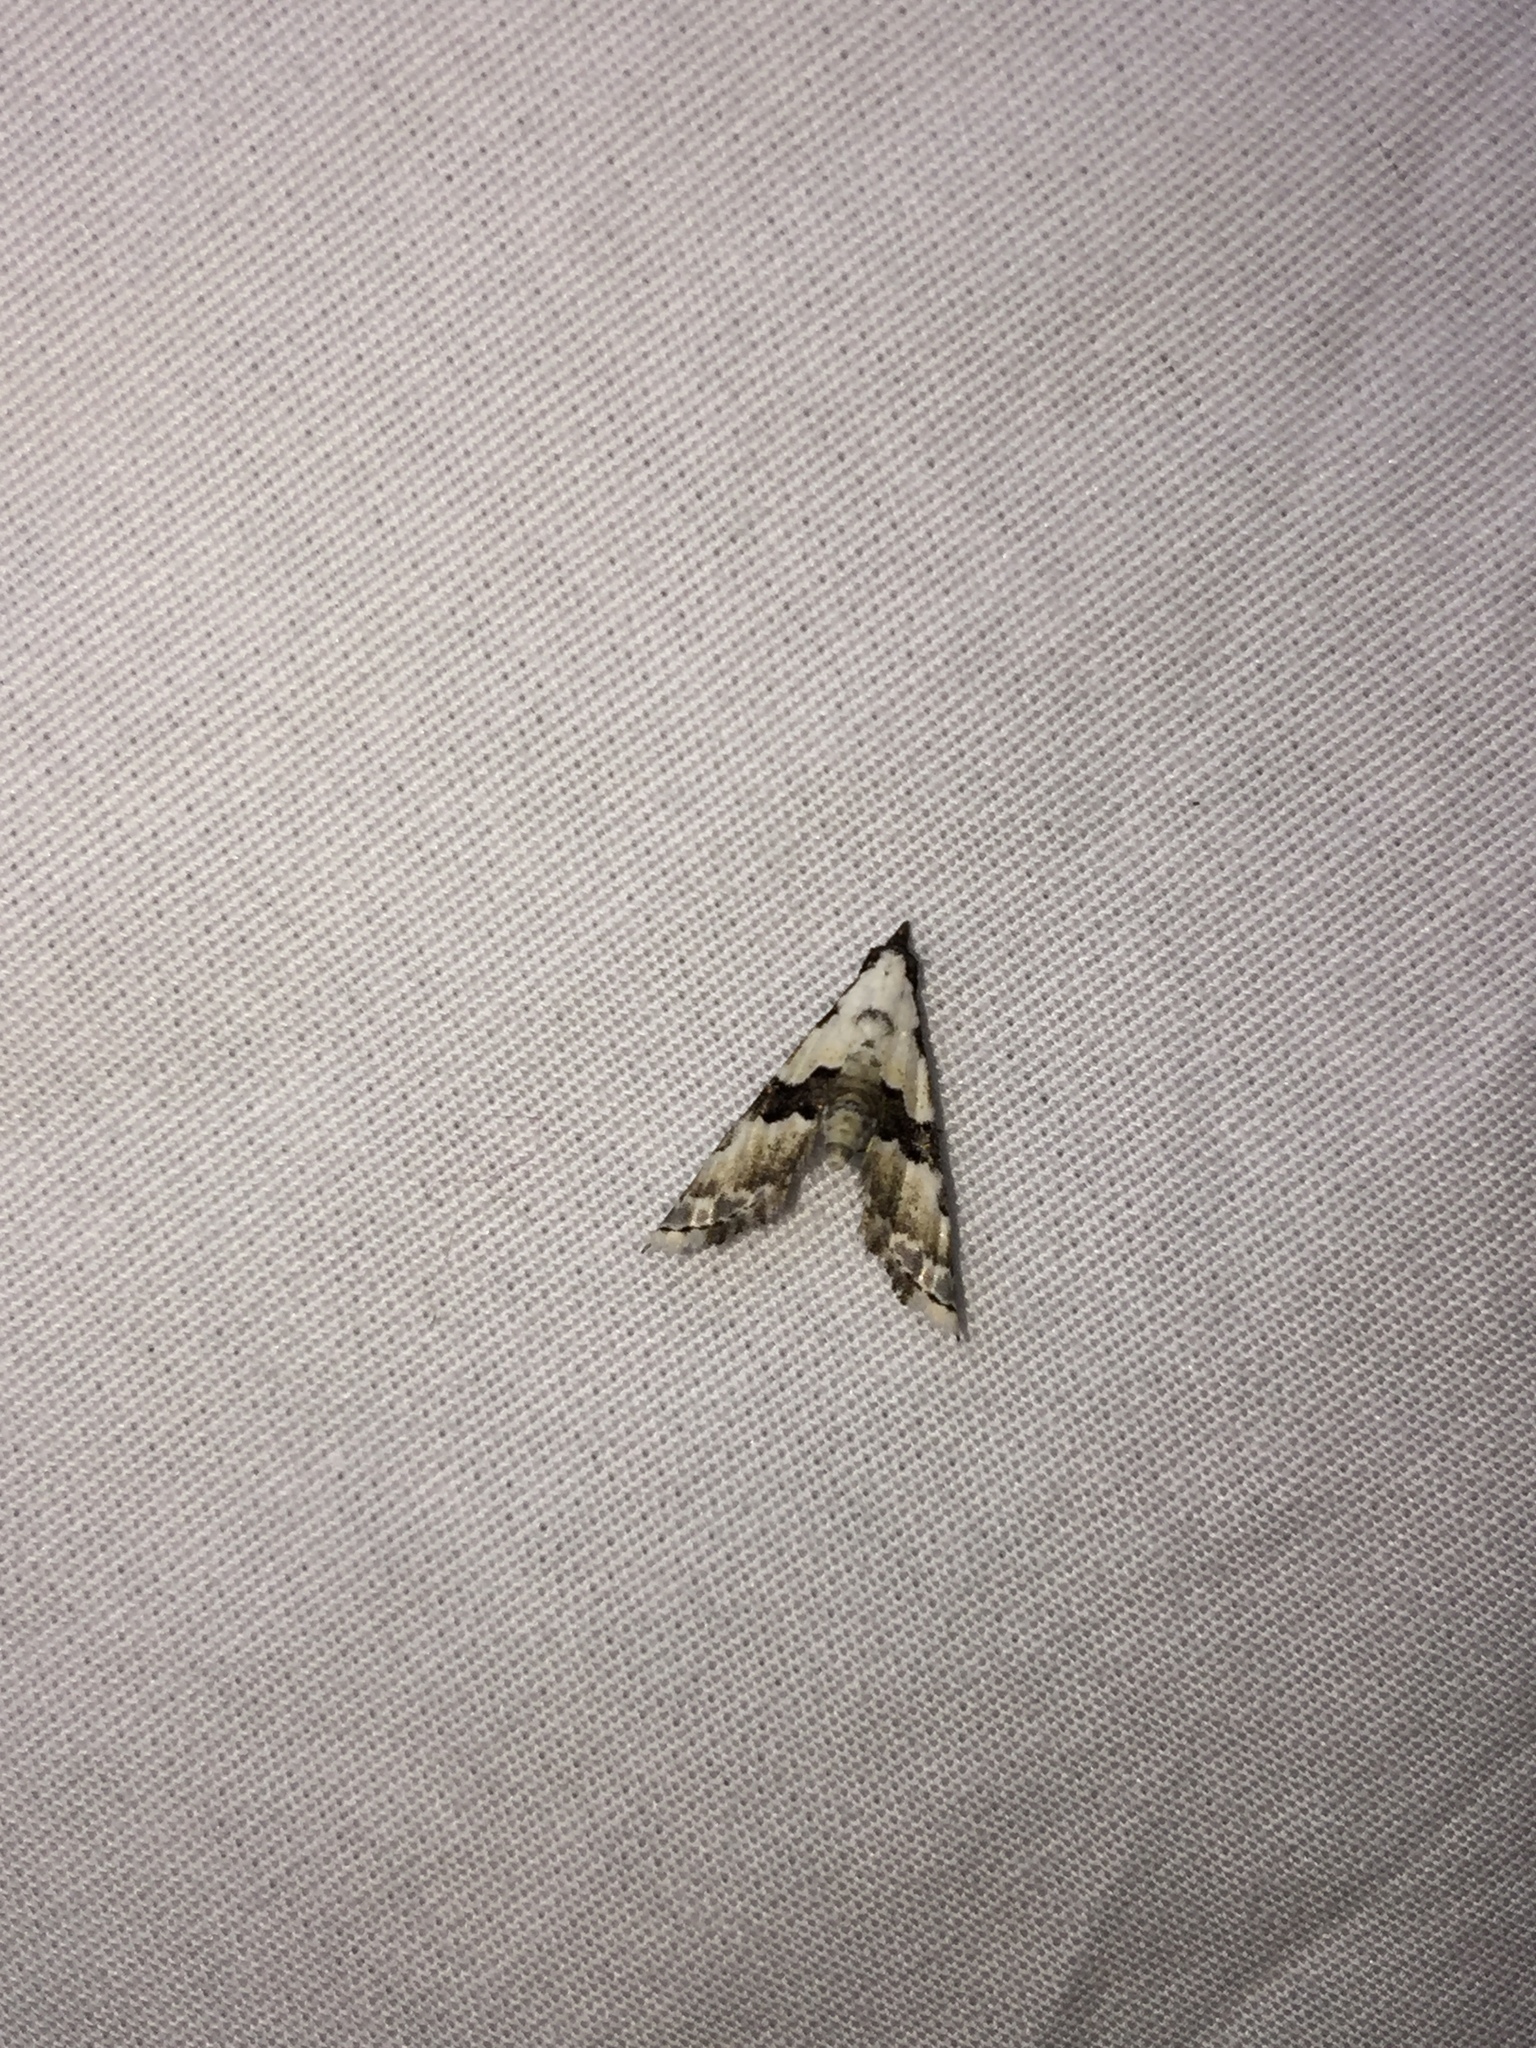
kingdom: Animalia
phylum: Arthropoda
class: Insecta
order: Lepidoptera
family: Noctuidae
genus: Nigetia
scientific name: Nigetia formosalis
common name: Thin-winged owlet
